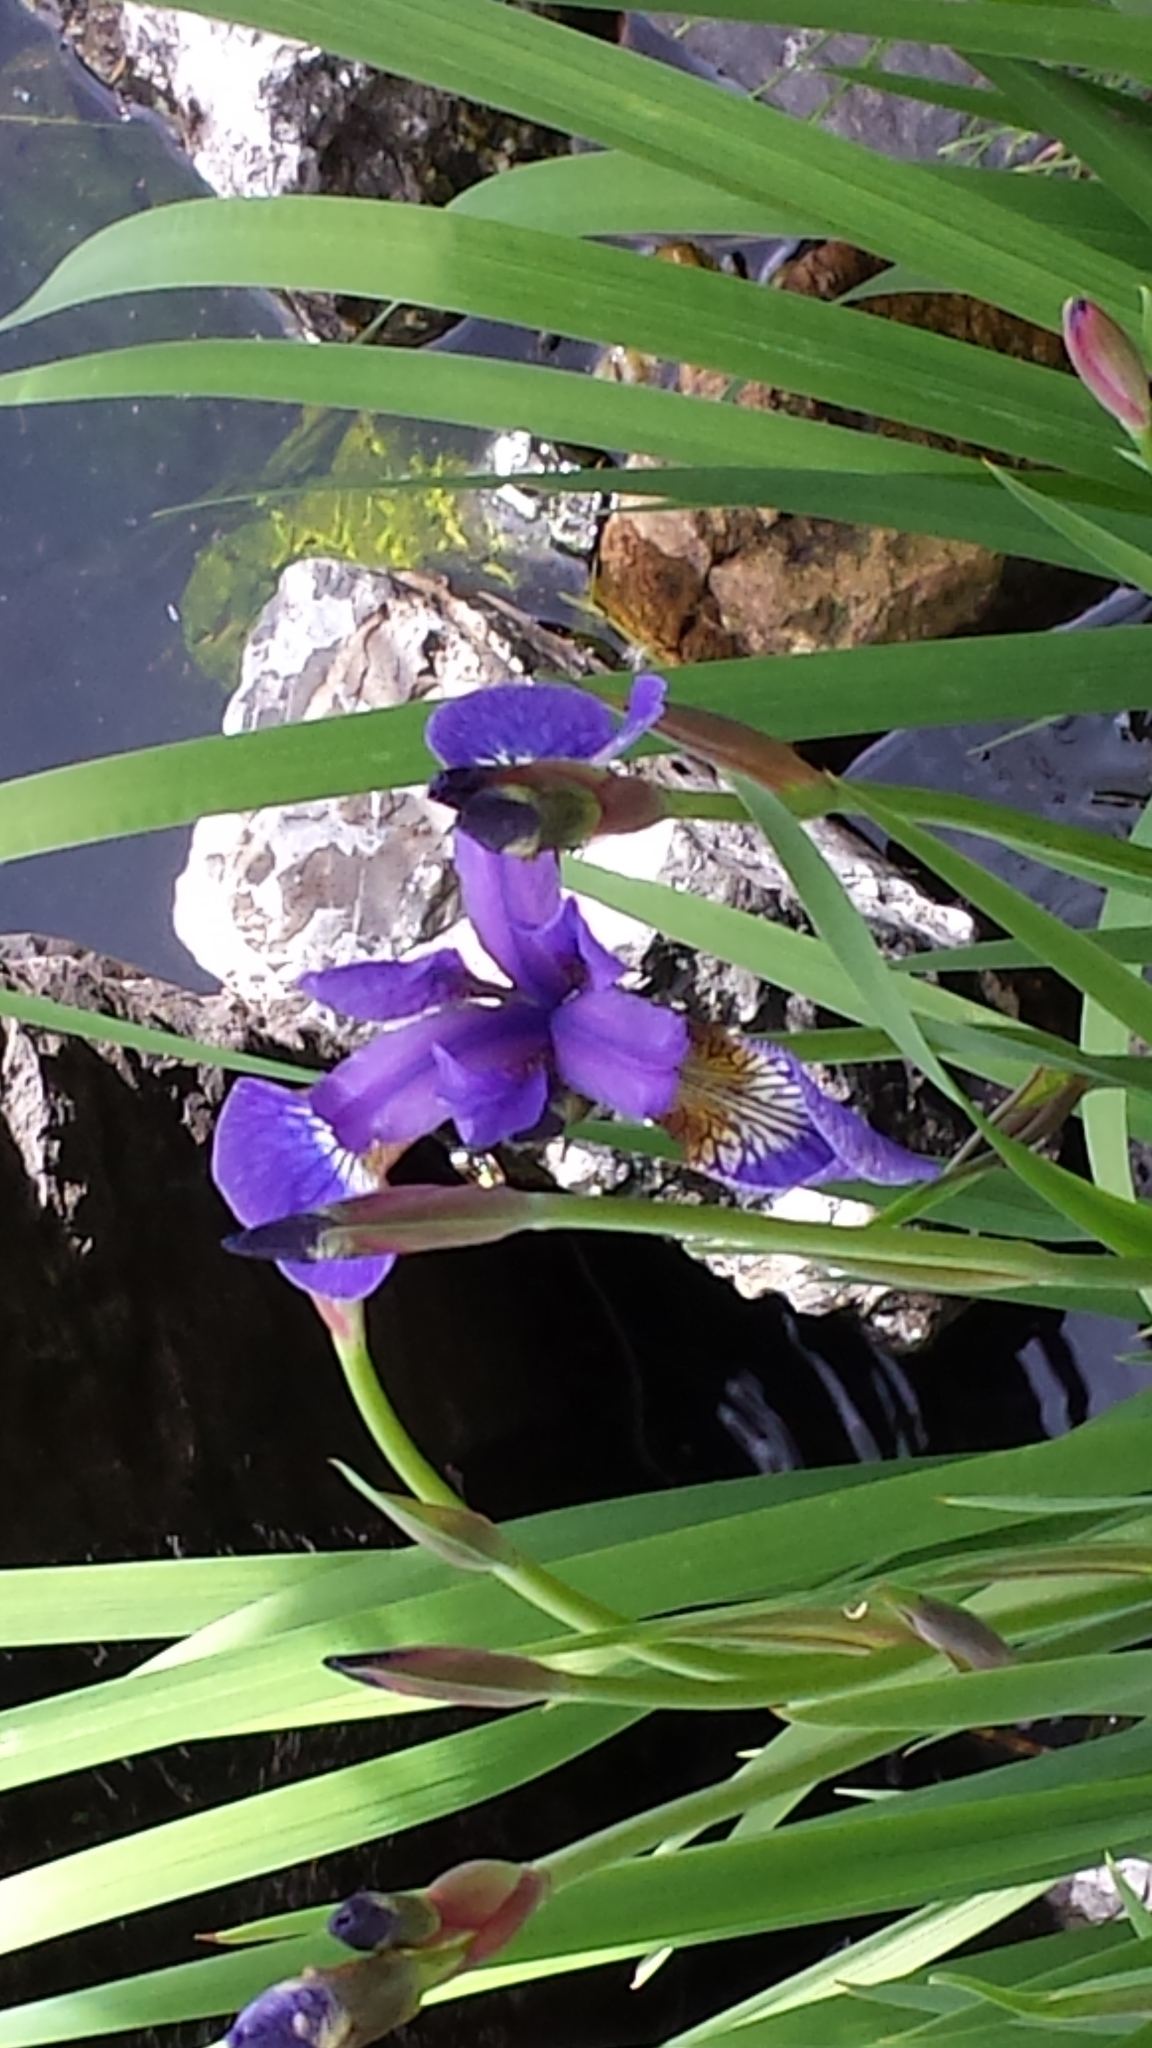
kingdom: Plantae
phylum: Tracheophyta
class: Liliopsida
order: Asparagales
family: Iridaceae
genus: Iris
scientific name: Iris sanguinea
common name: Blood iris
